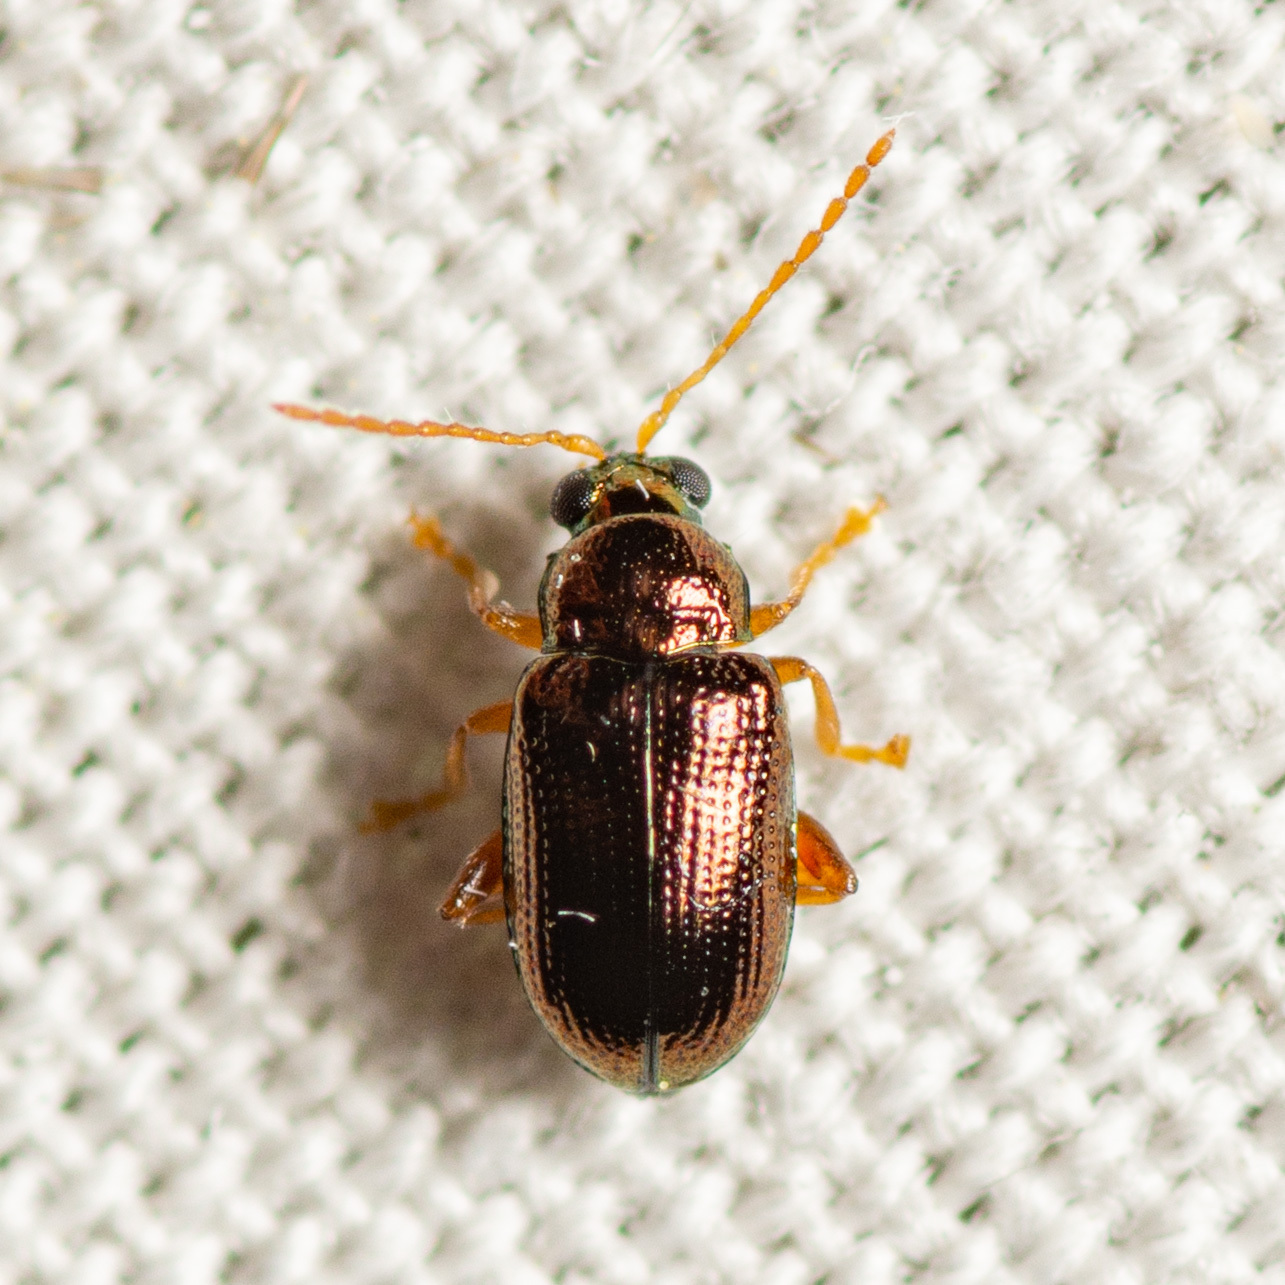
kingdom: Animalia
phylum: Arthropoda
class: Insecta
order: Coleoptera
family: Chrysomelidae
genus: Crepidodera
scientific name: Crepidodera browni
